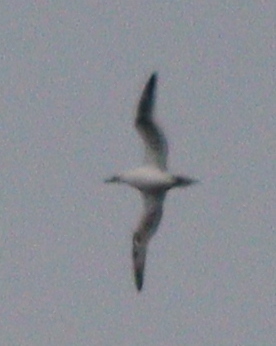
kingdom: Animalia
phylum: Chordata
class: Aves
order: Suliformes
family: Sulidae
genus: Morus
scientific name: Morus bassanus
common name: Northern gannet
